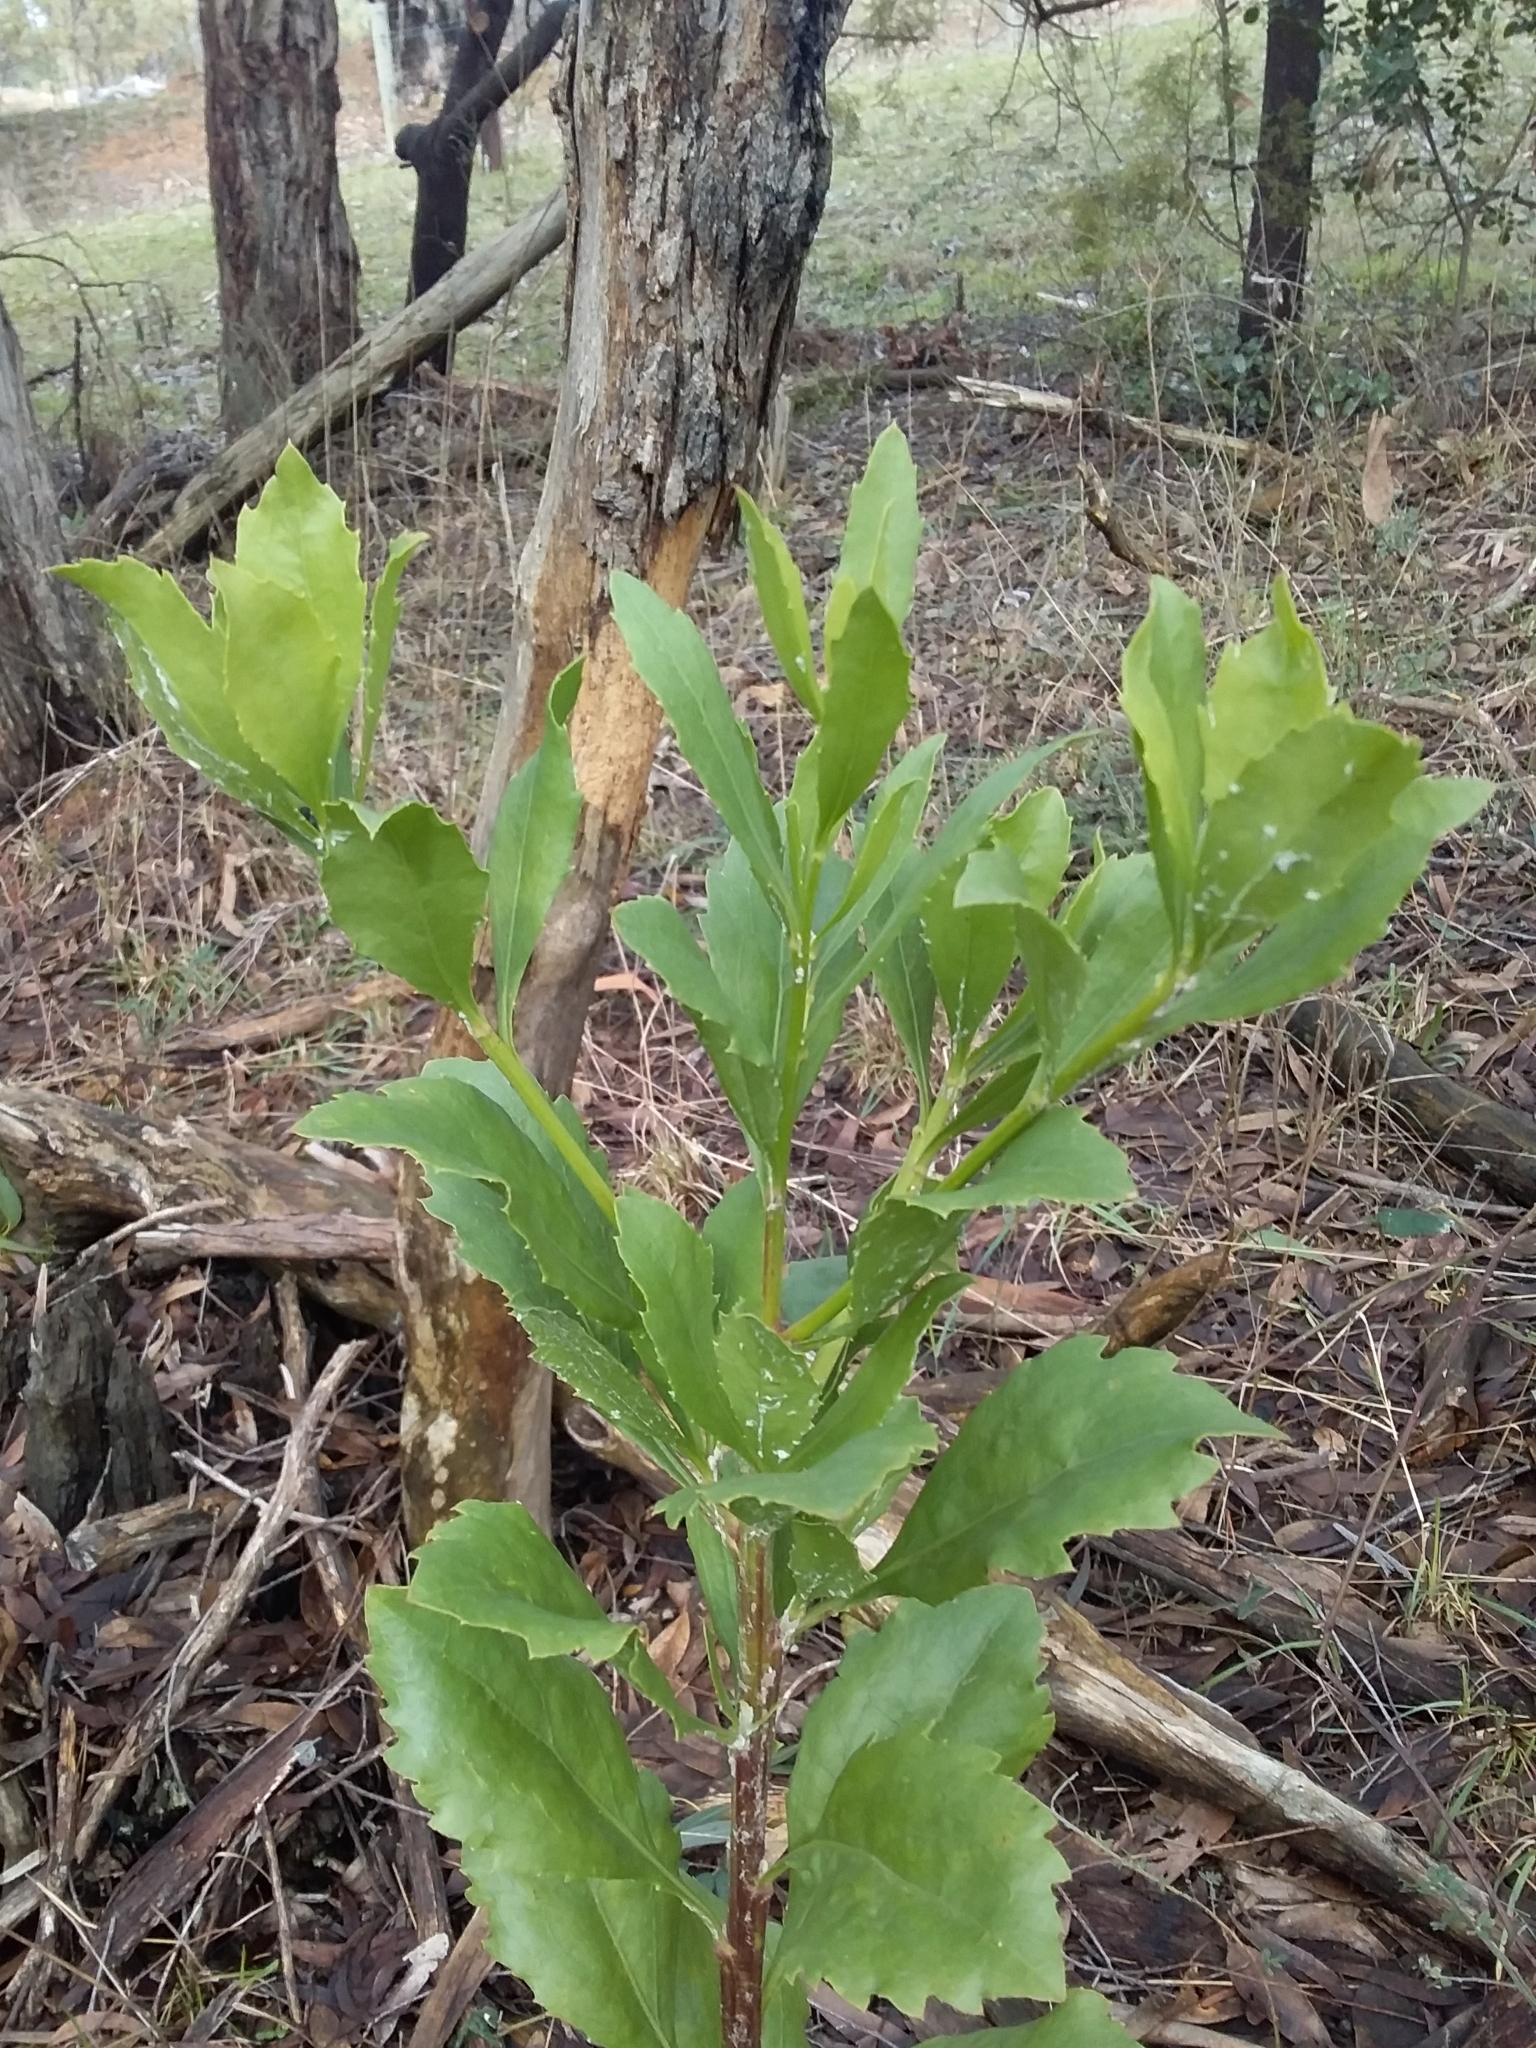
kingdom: Plantae
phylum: Tracheophyta
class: Magnoliopsida
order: Asterales
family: Asteraceae
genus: Osteospermum
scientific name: Osteospermum moniliferum
